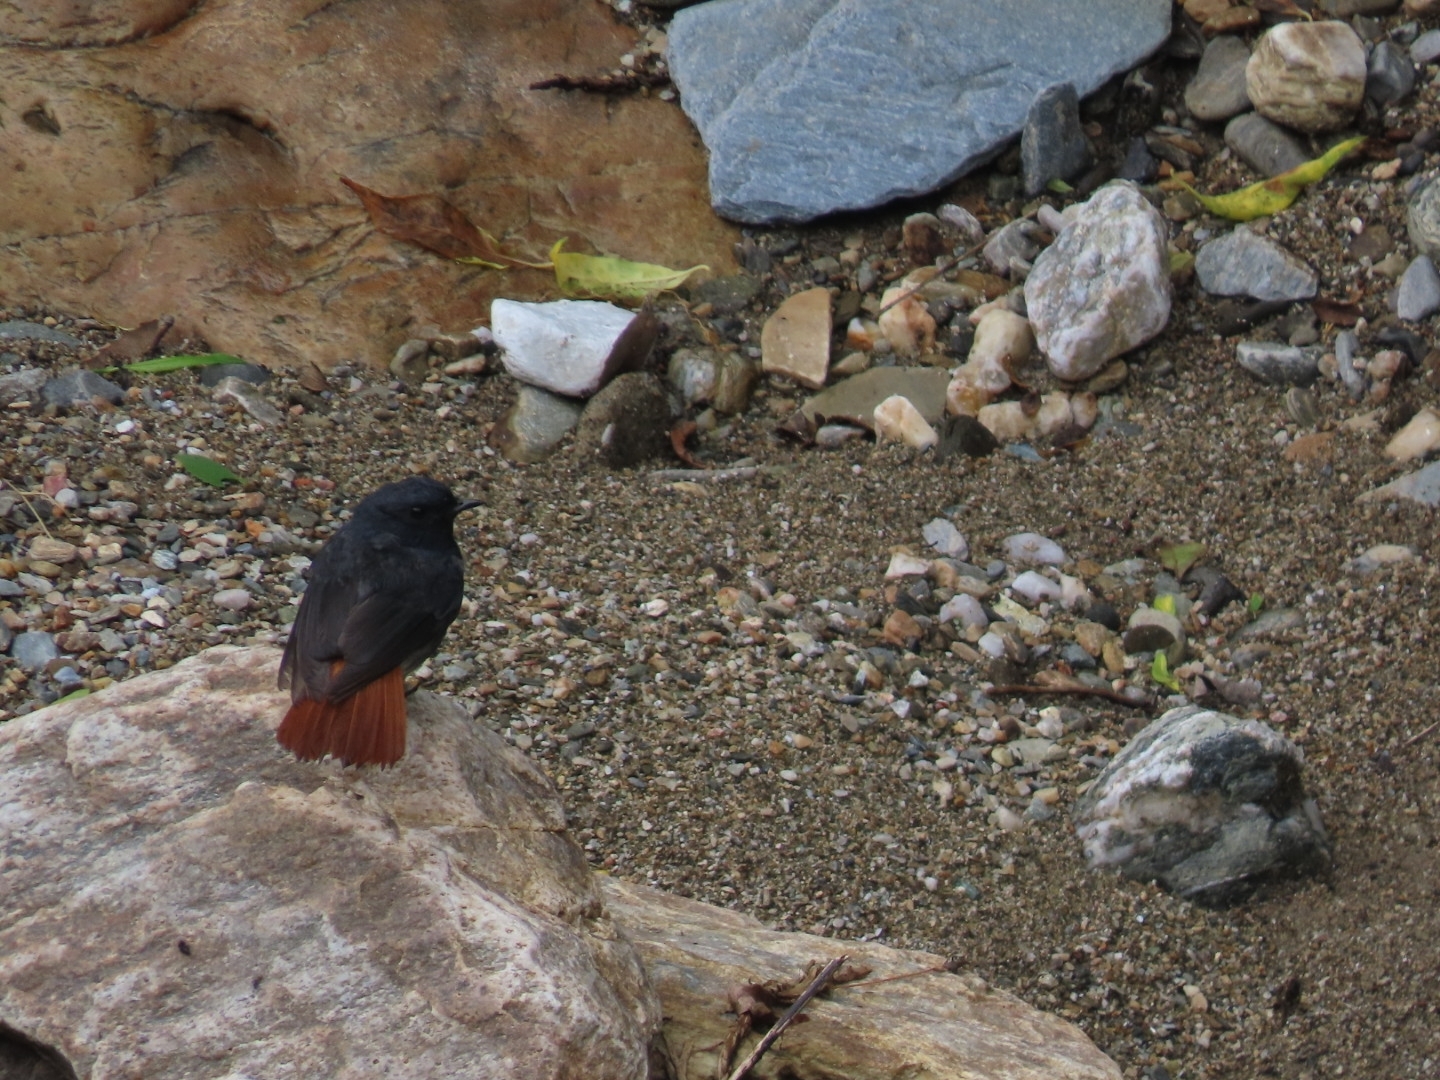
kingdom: Animalia
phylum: Chordata
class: Aves
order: Passeriformes
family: Muscicapidae
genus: Phoenicurus
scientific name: Phoenicurus fuliginosus
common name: Plumbeous water redstart
